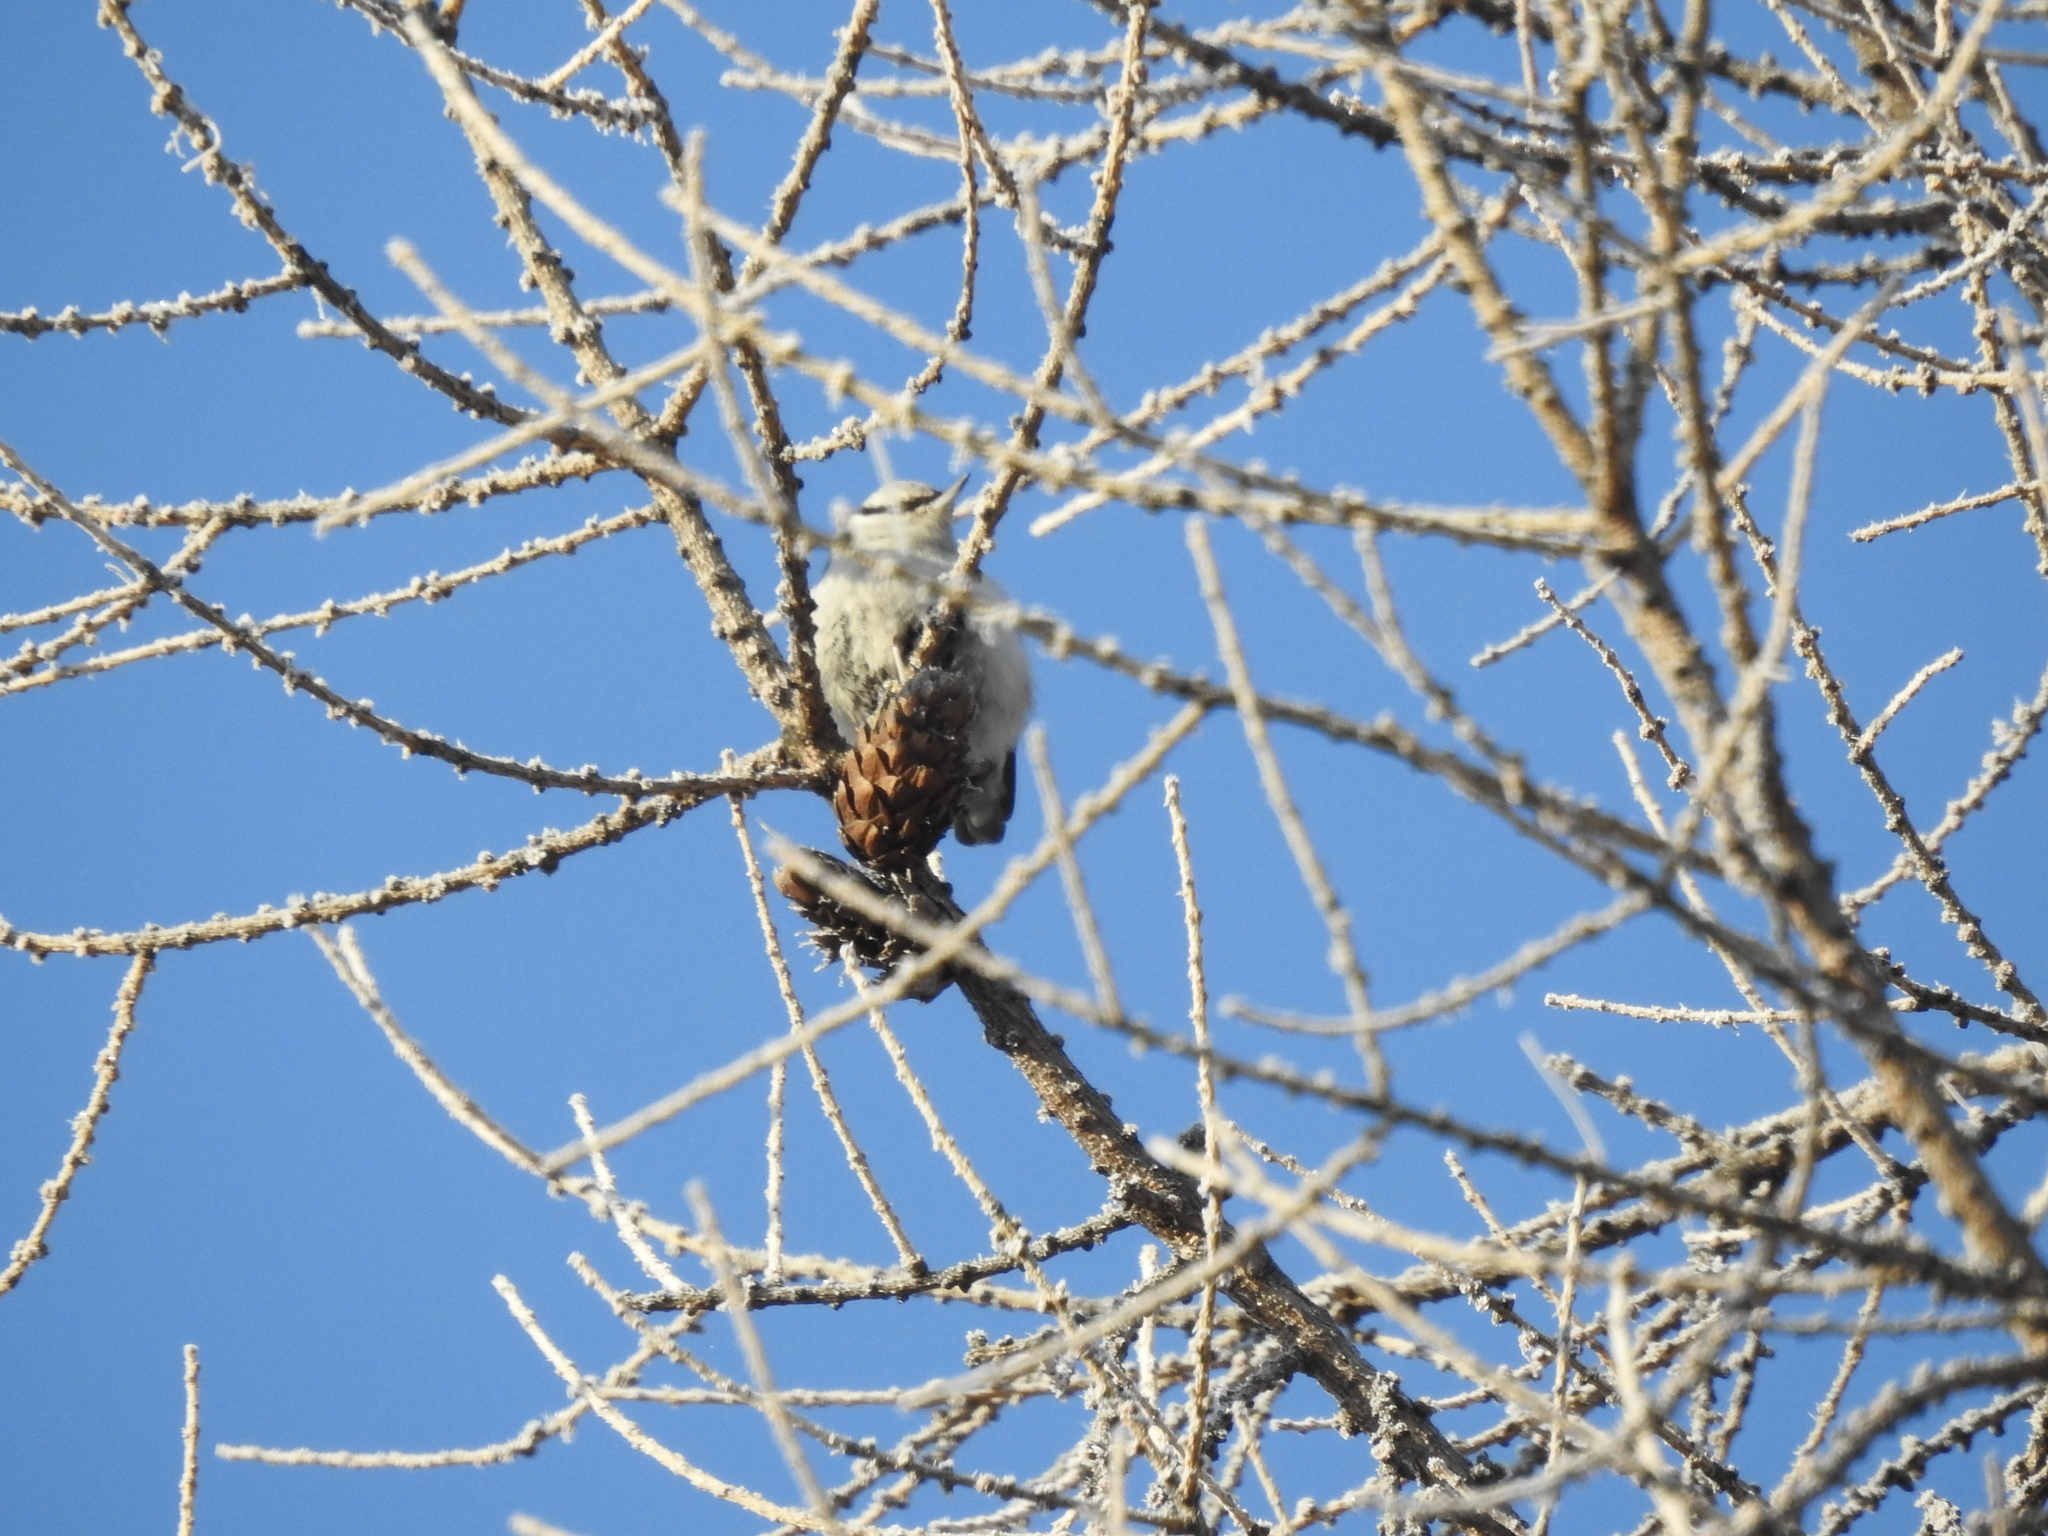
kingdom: Animalia
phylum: Chordata
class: Aves
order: Passeriformes
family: Sittidae
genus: Sitta
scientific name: Sitta europaea
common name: Eurasian nuthatch
